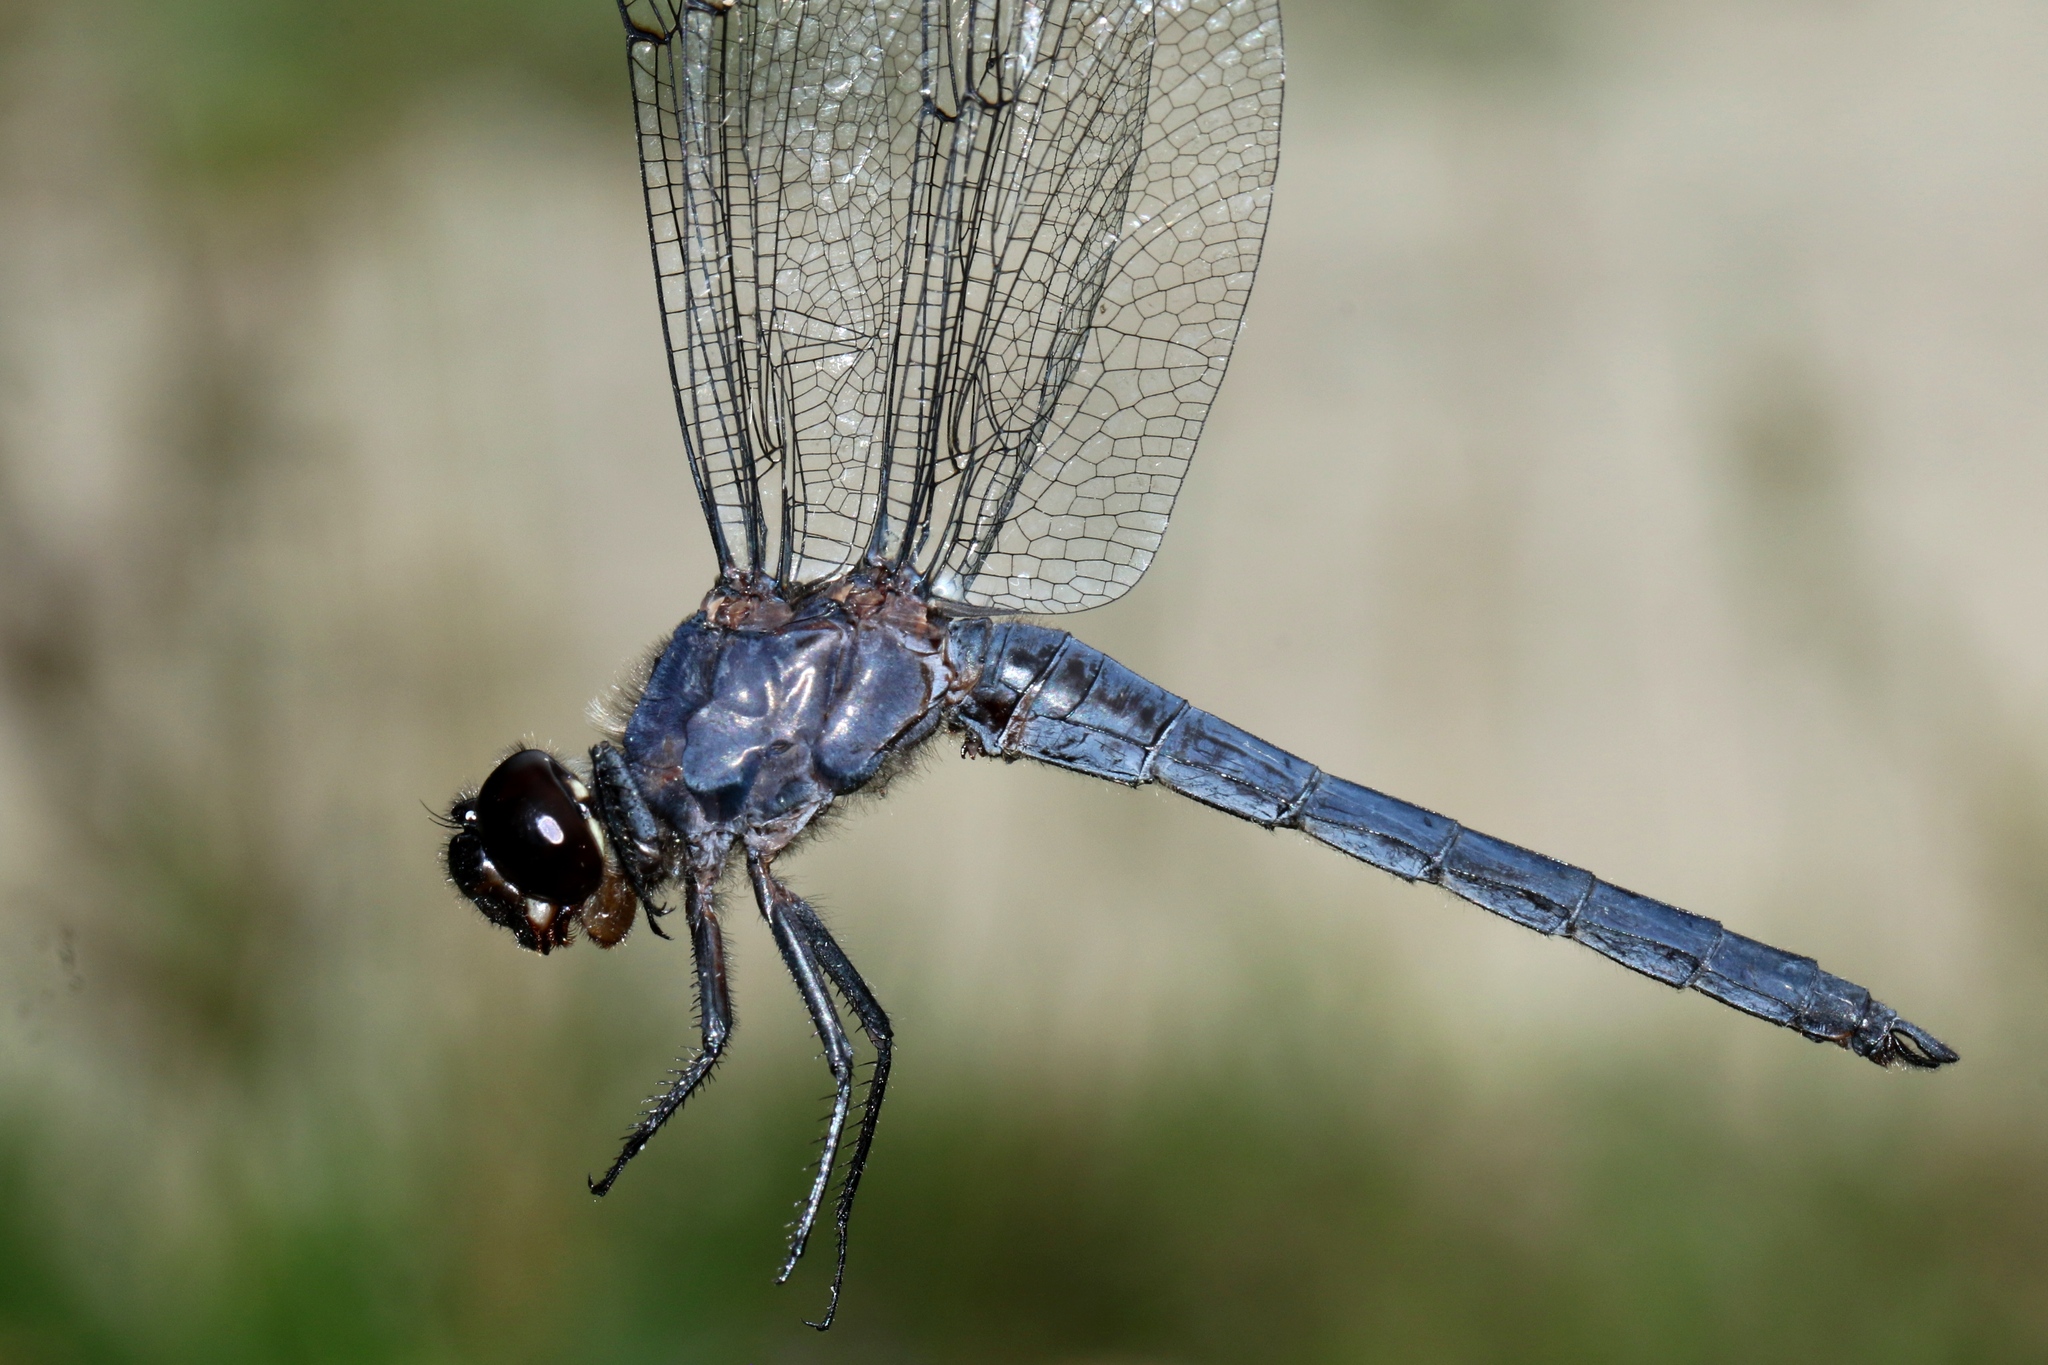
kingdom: Animalia
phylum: Arthropoda
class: Insecta
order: Odonata
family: Libellulidae
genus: Libellula
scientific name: Libellula incesta
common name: Slaty skimmer
